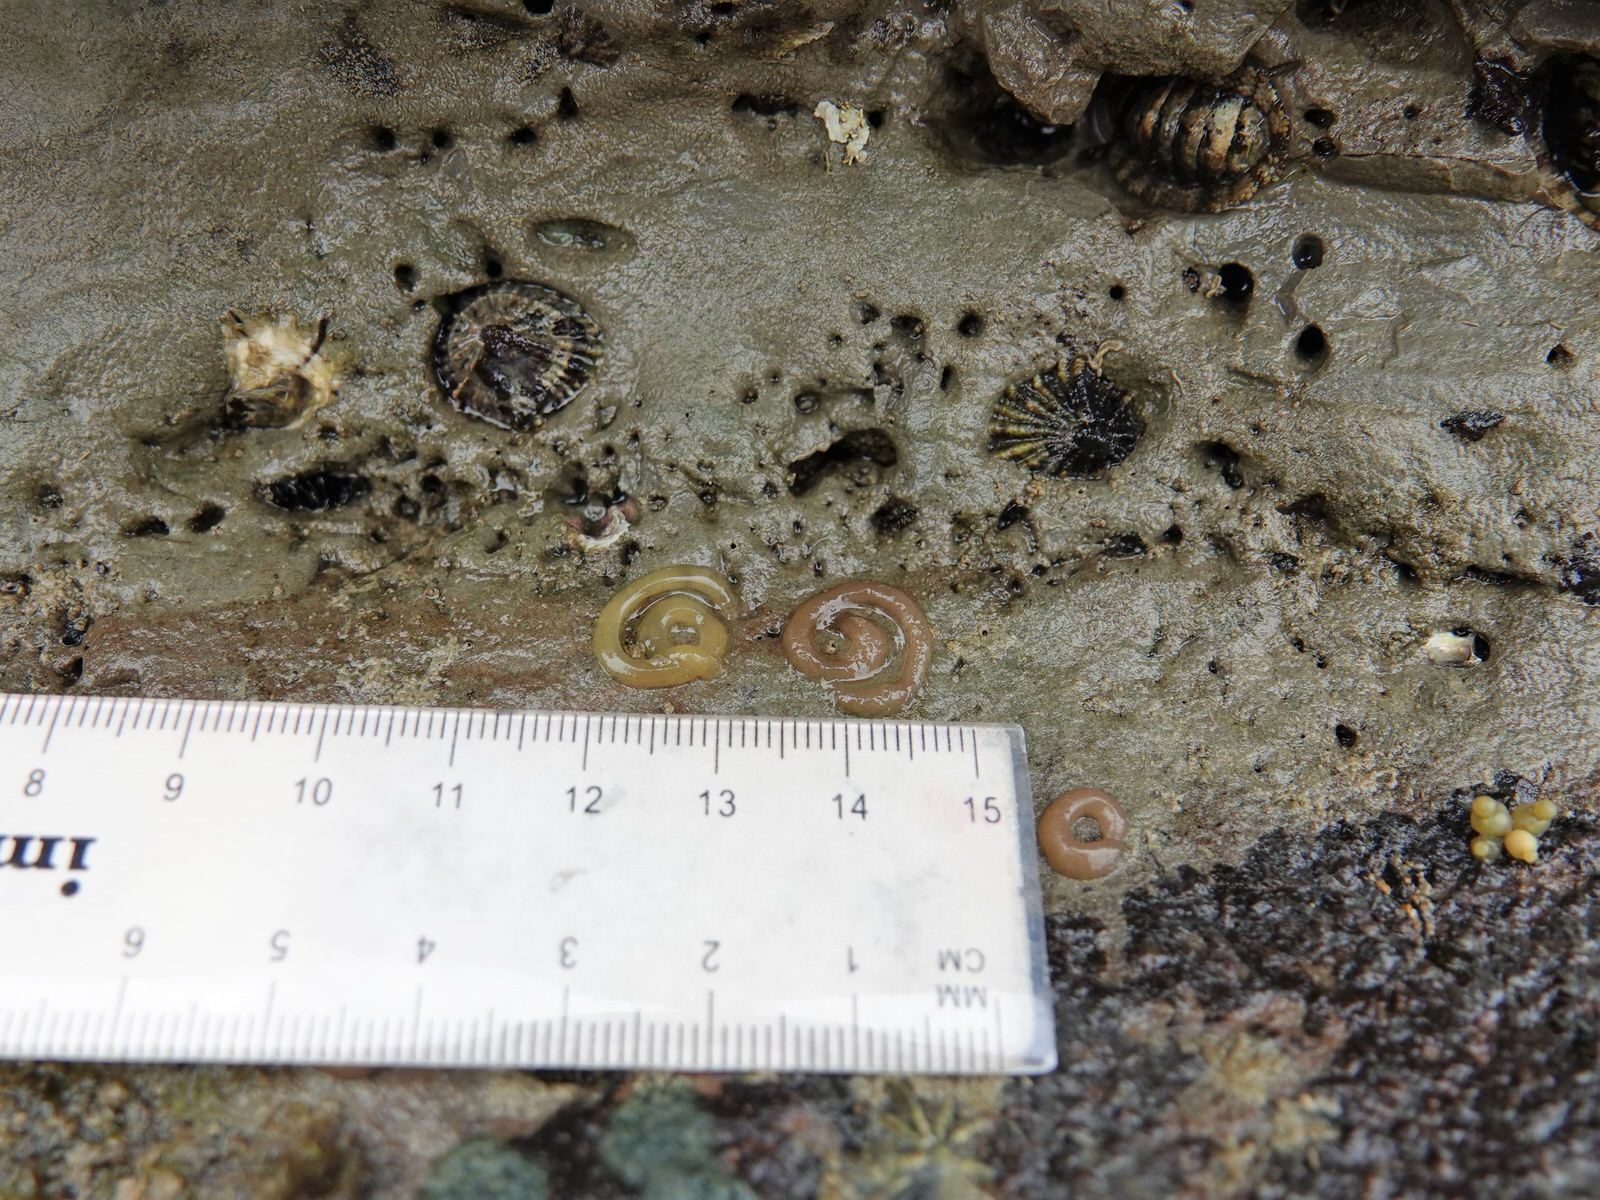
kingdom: Animalia
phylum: Mollusca
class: Gastropoda
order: Siphonariida
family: Siphonariidae
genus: Siphonaria
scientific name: Siphonaria australis
